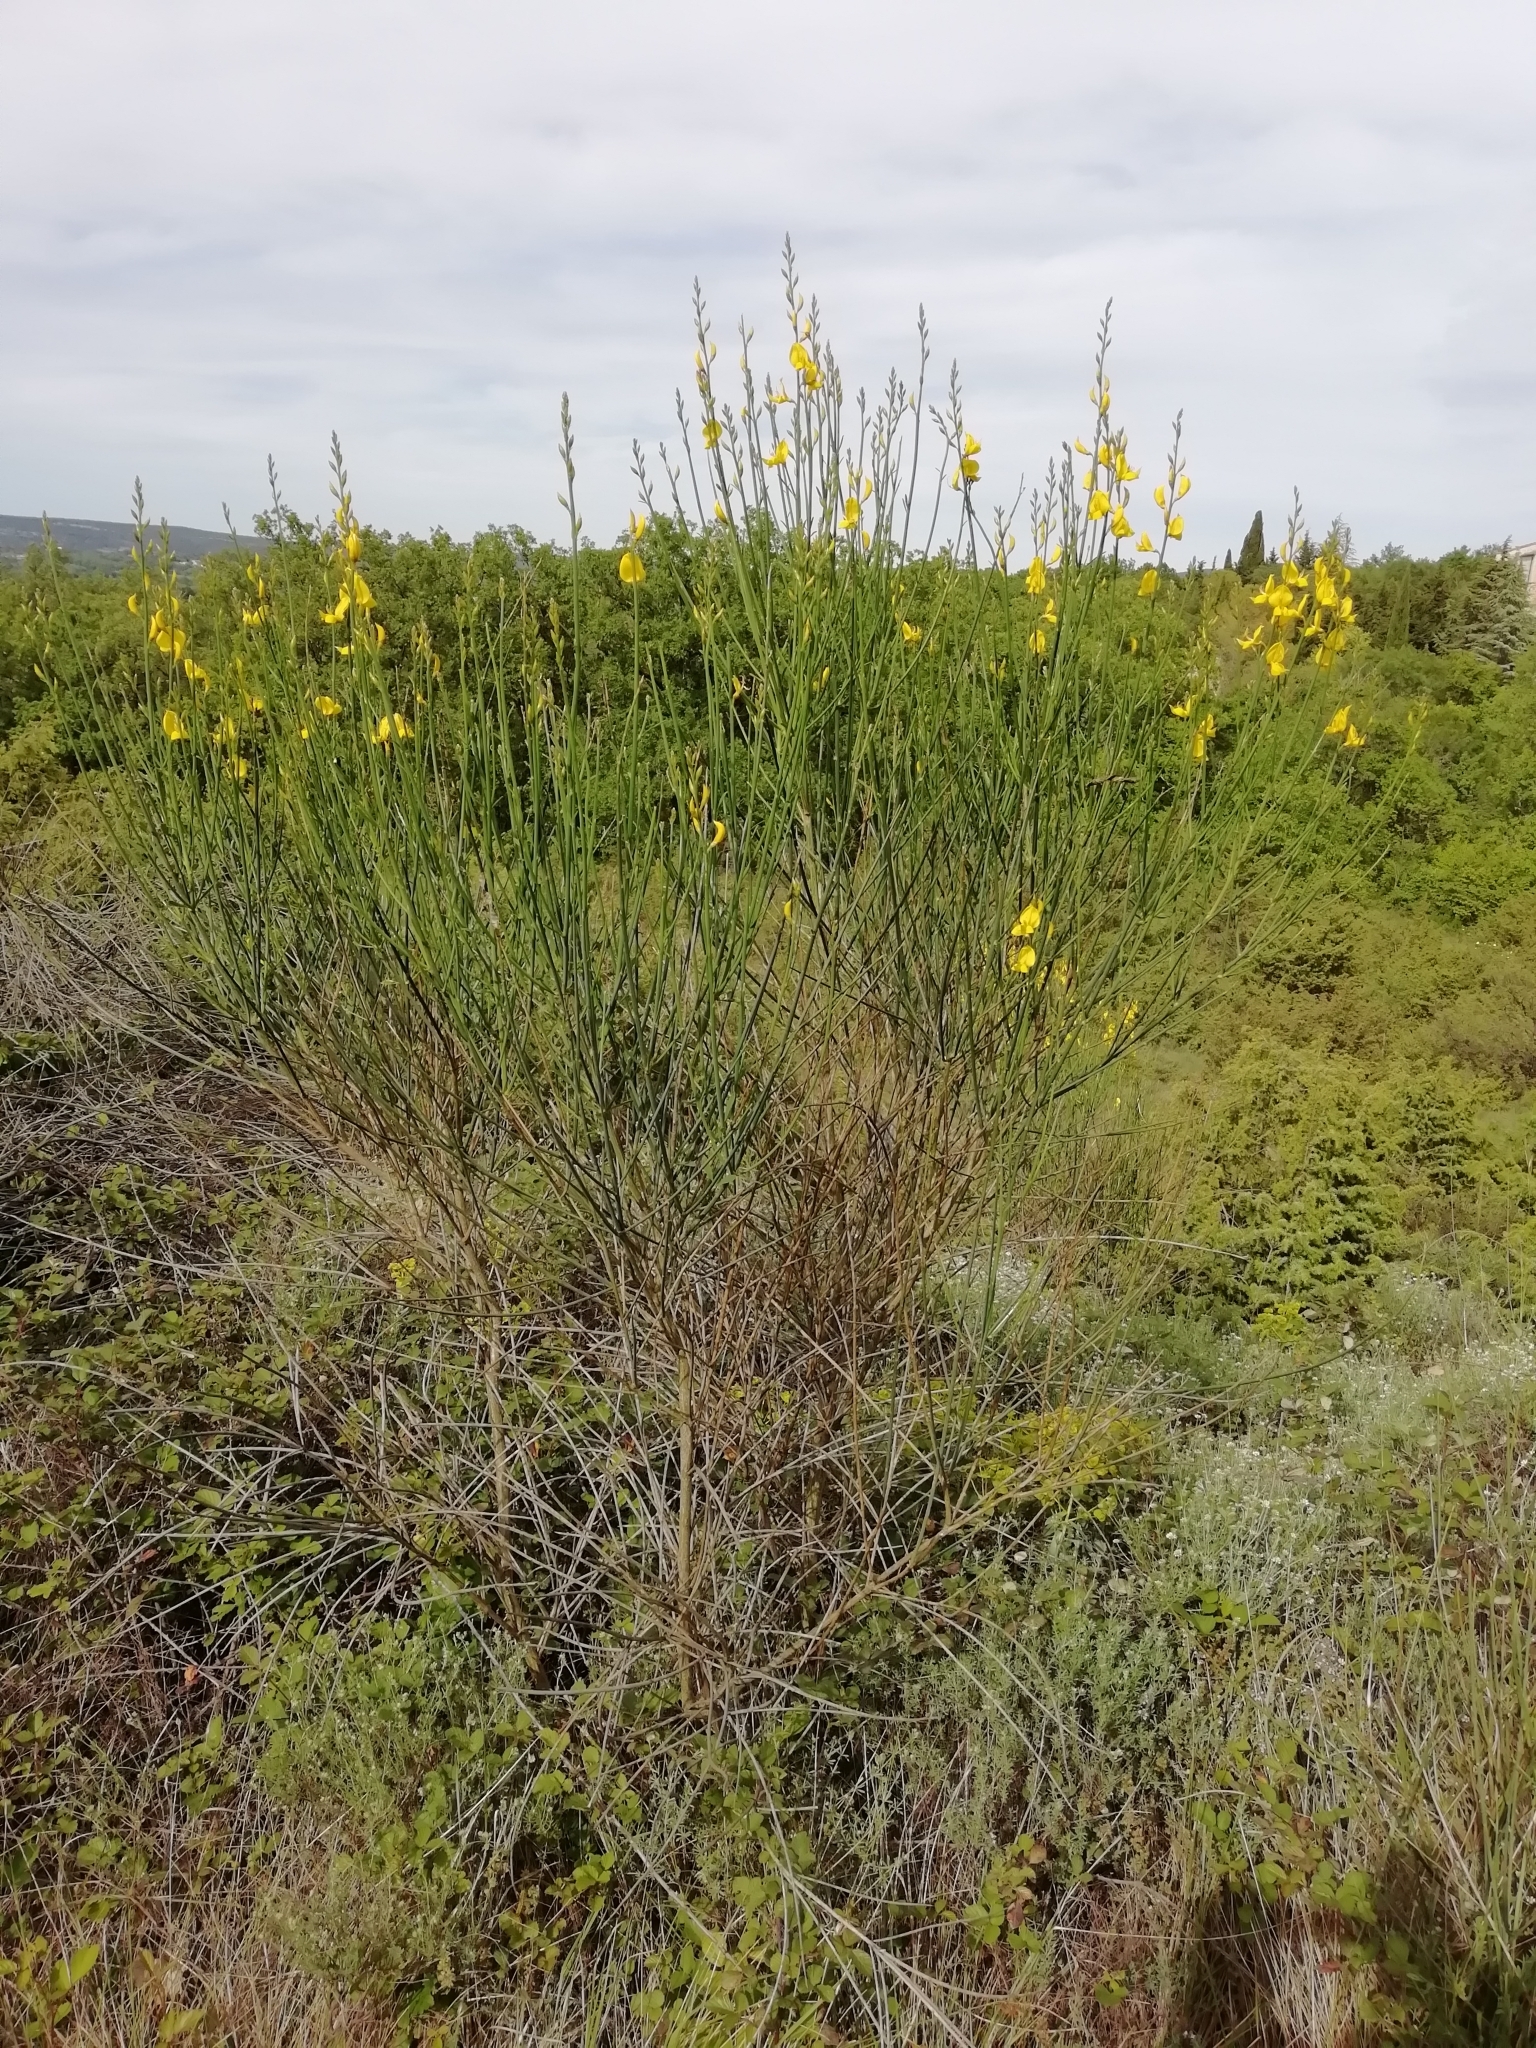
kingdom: Plantae
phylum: Tracheophyta
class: Magnoliopsida
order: Fabales
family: Fabaceae
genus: Spartium
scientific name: Spartium junceum
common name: Spanish broom
